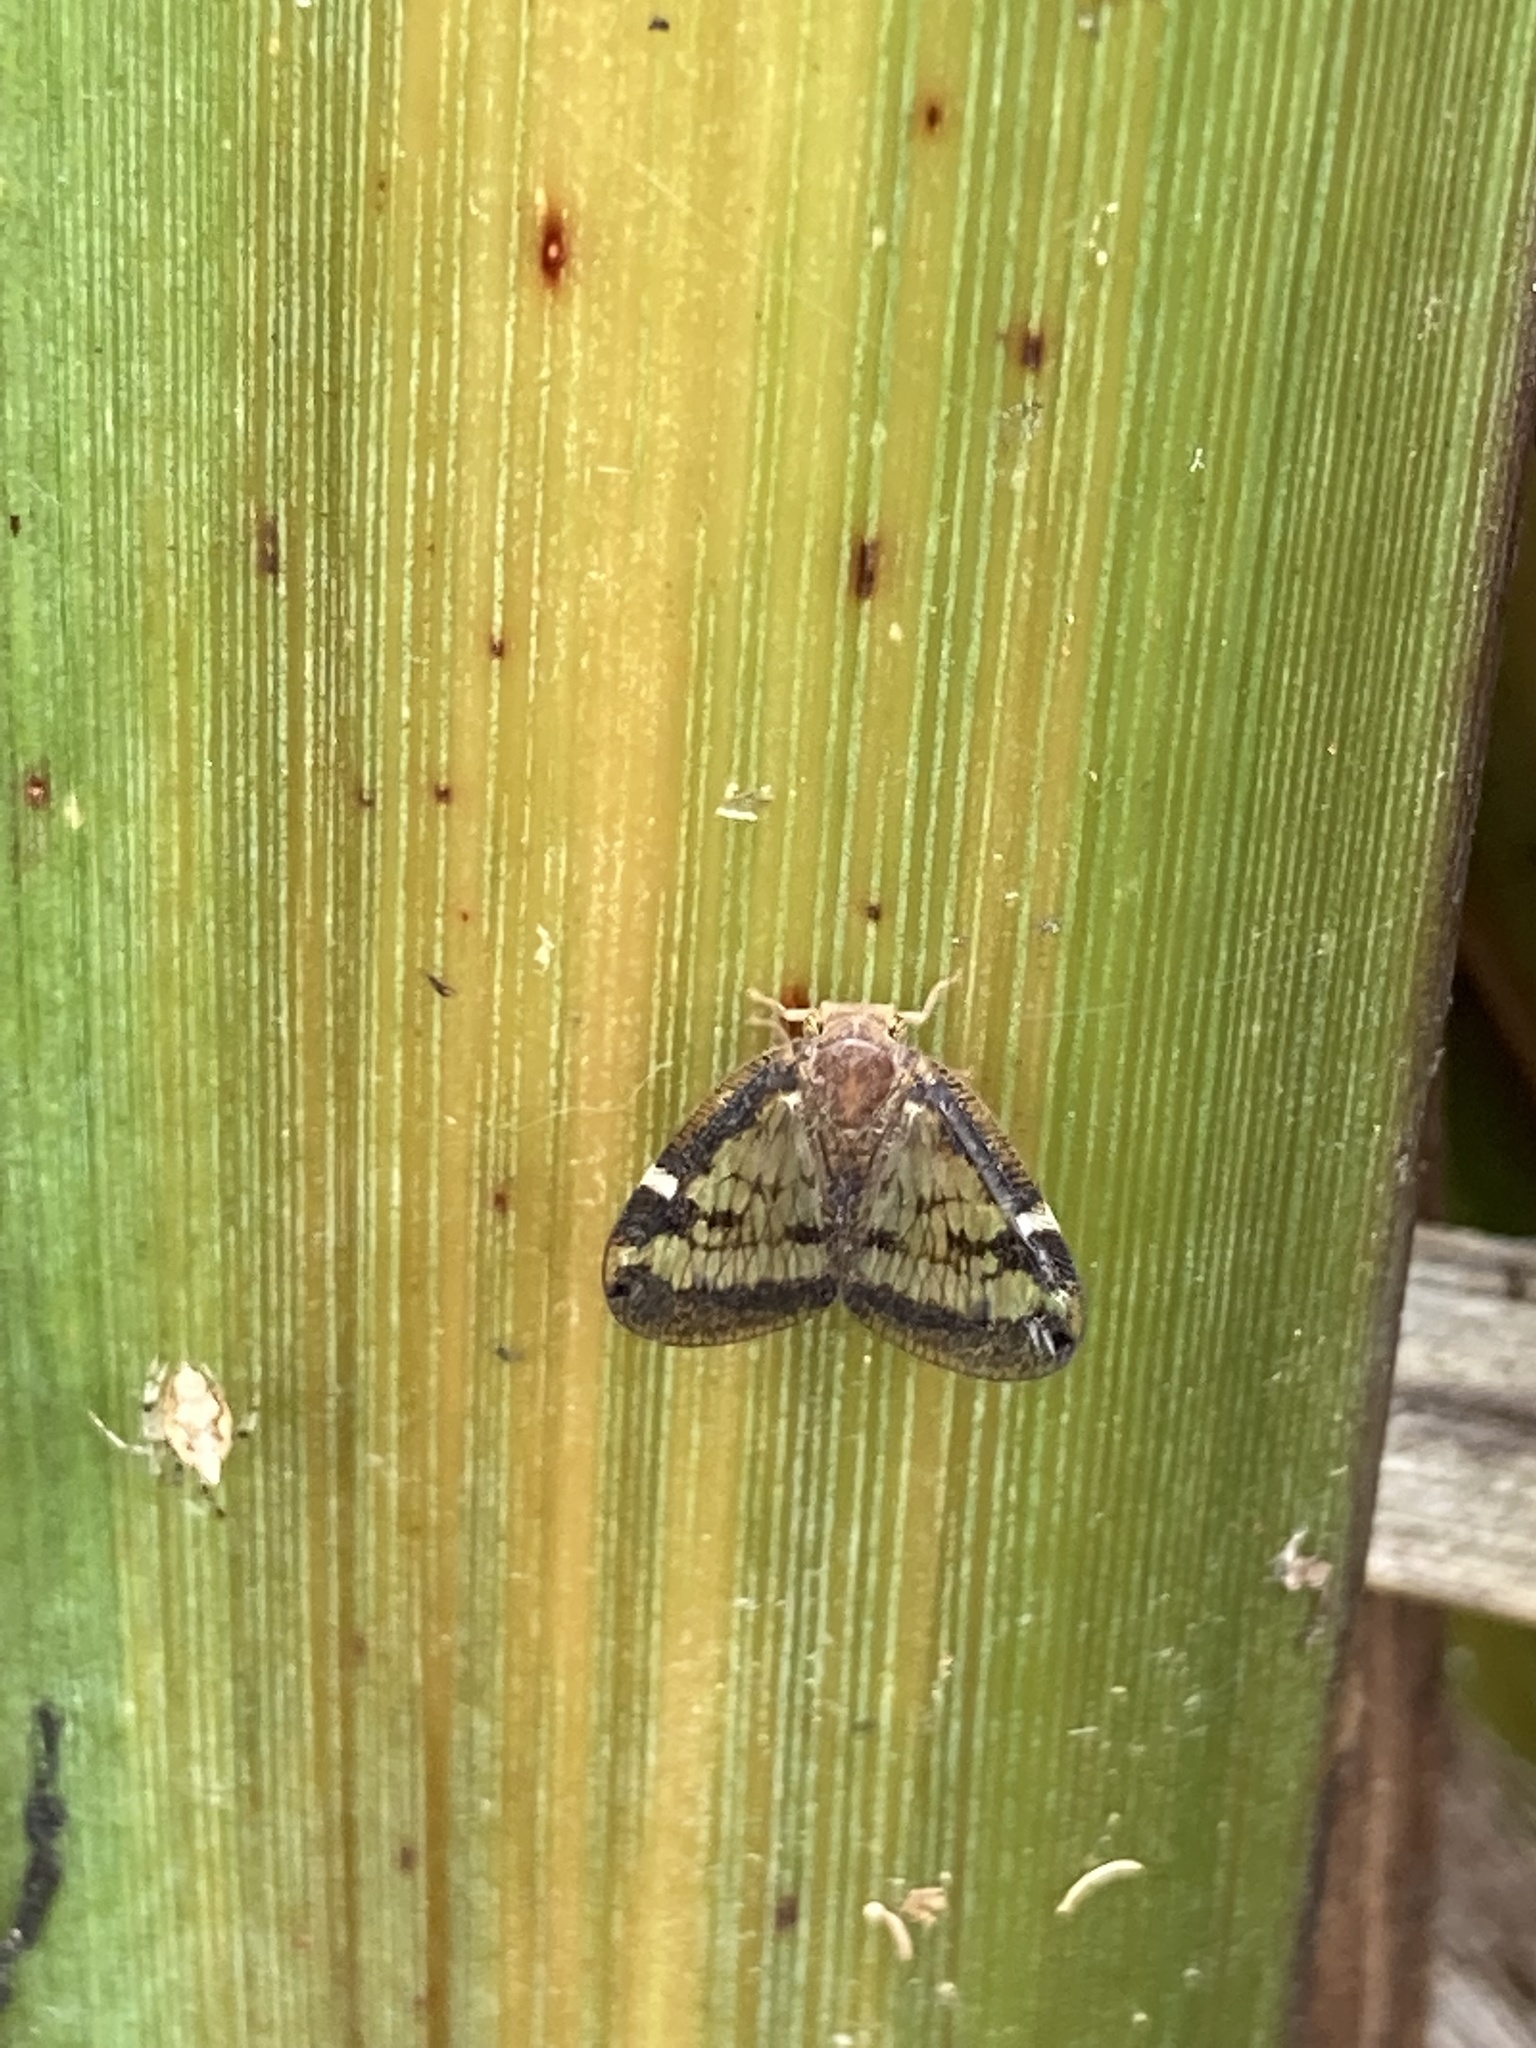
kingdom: Animalia
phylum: Arthropoda
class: Insecta
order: Hemiptera
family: Ricaniidae
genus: Scolypopa
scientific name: Scolypopa australis
